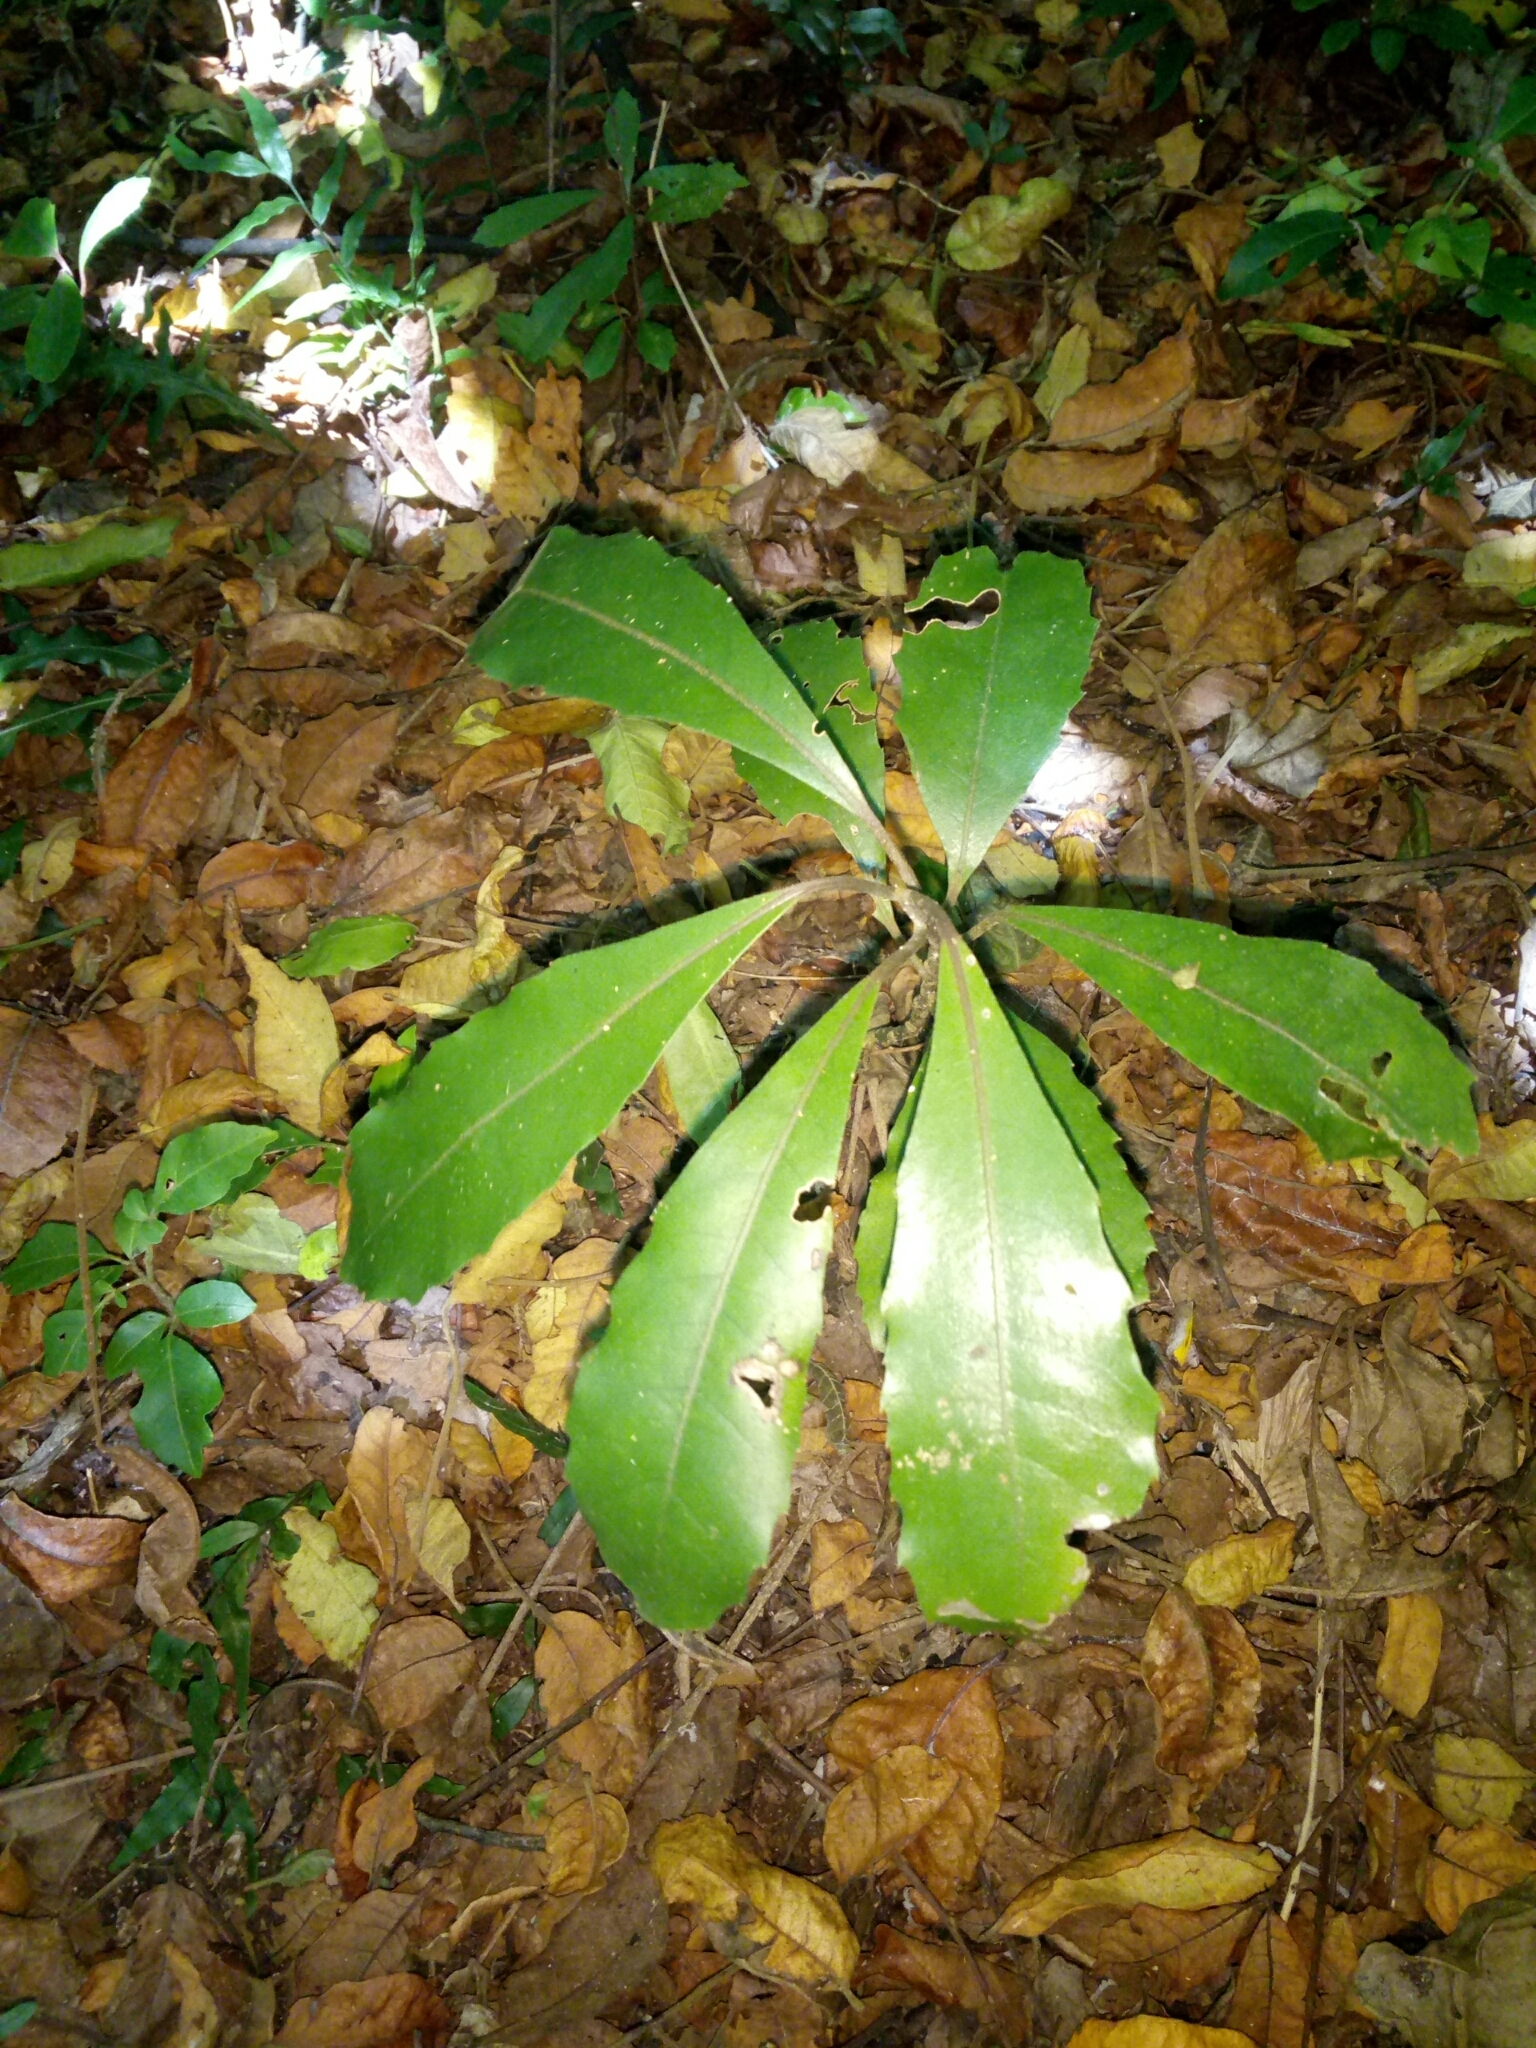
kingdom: Plantae
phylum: Tracheophyta
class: Magnoliopsida
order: Laurales
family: Monimiaceae
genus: Hedycarya
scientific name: Hedycarya arborea
